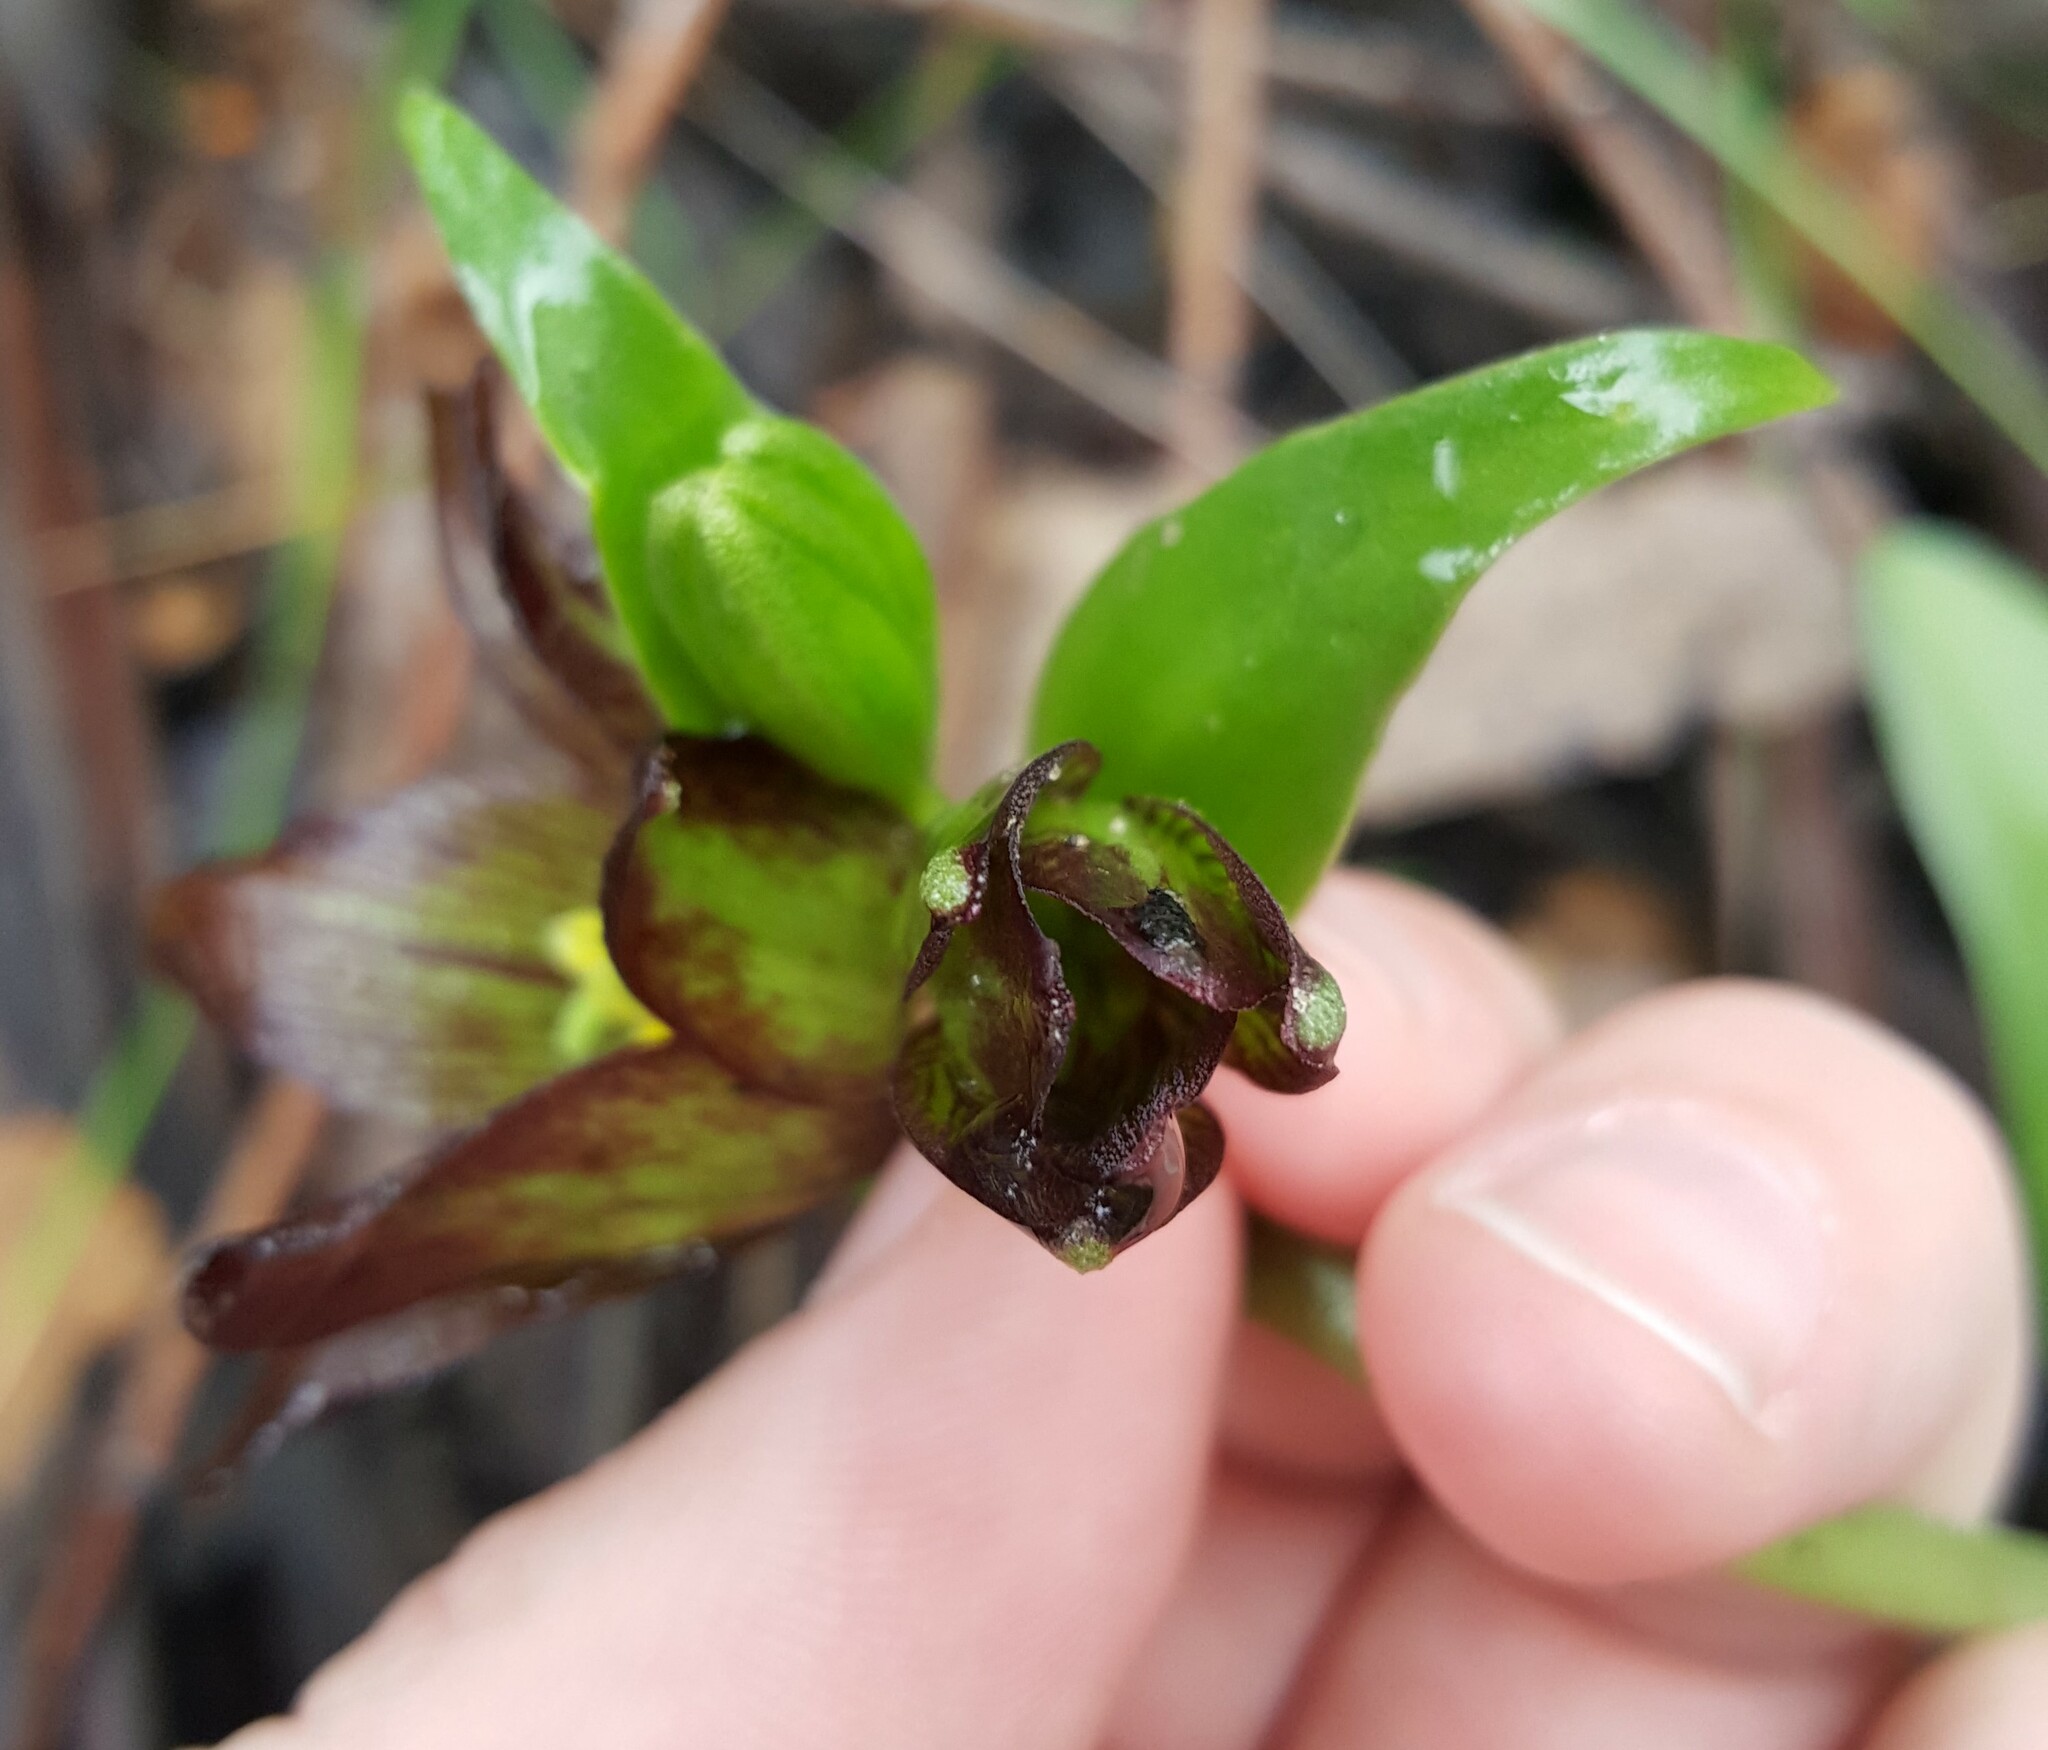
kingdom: Plantae
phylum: Tracheophyta
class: Liliopsida
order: Liliales
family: Liliaceae
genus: Fritillaria
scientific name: Fritillaria biflora
